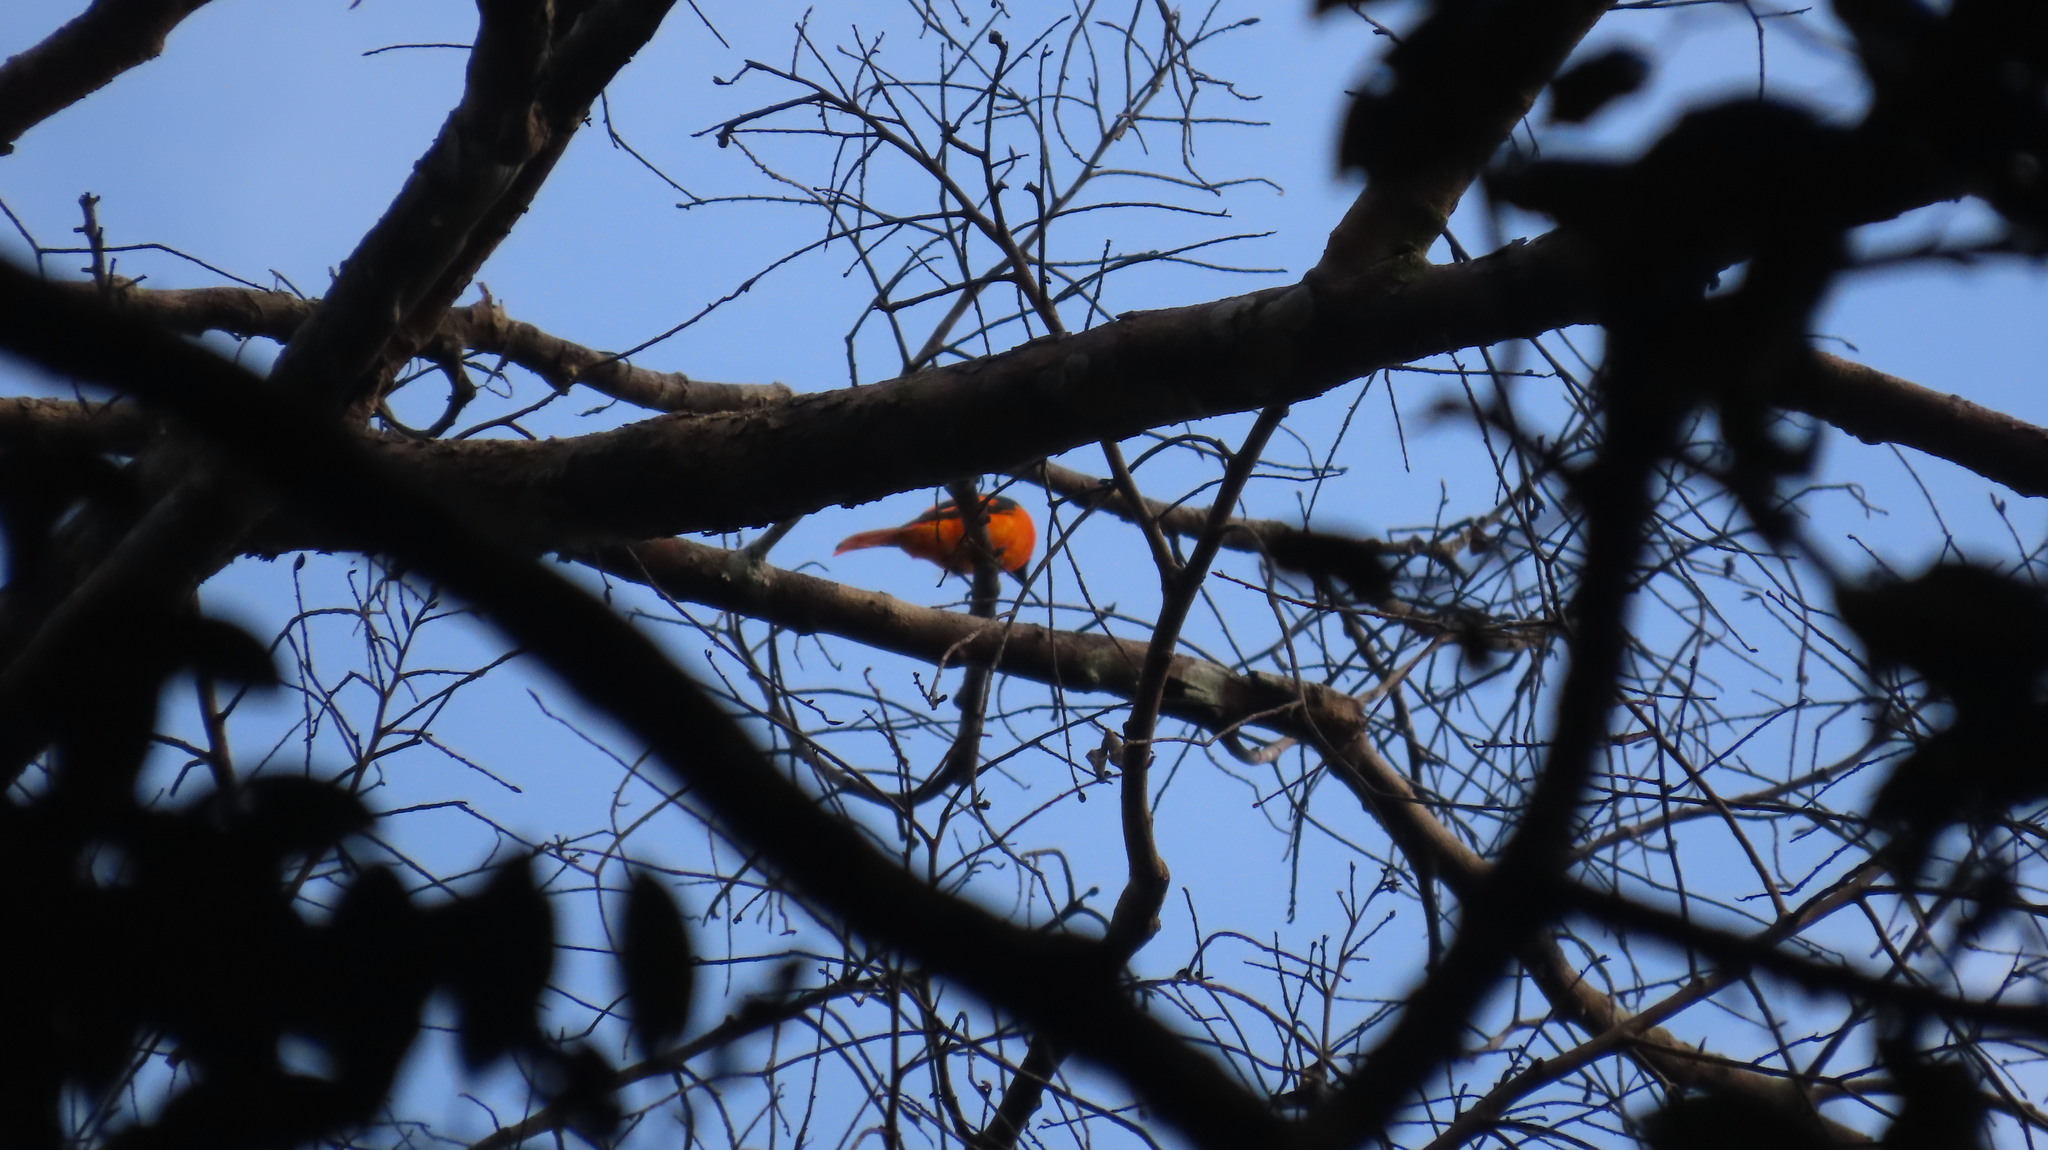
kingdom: Animalia
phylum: Chordata
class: Aves
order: Passeriformes
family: Campephagidae
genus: Pericrocotus
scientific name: Pericrocotus flammeus
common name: Orange minivet
